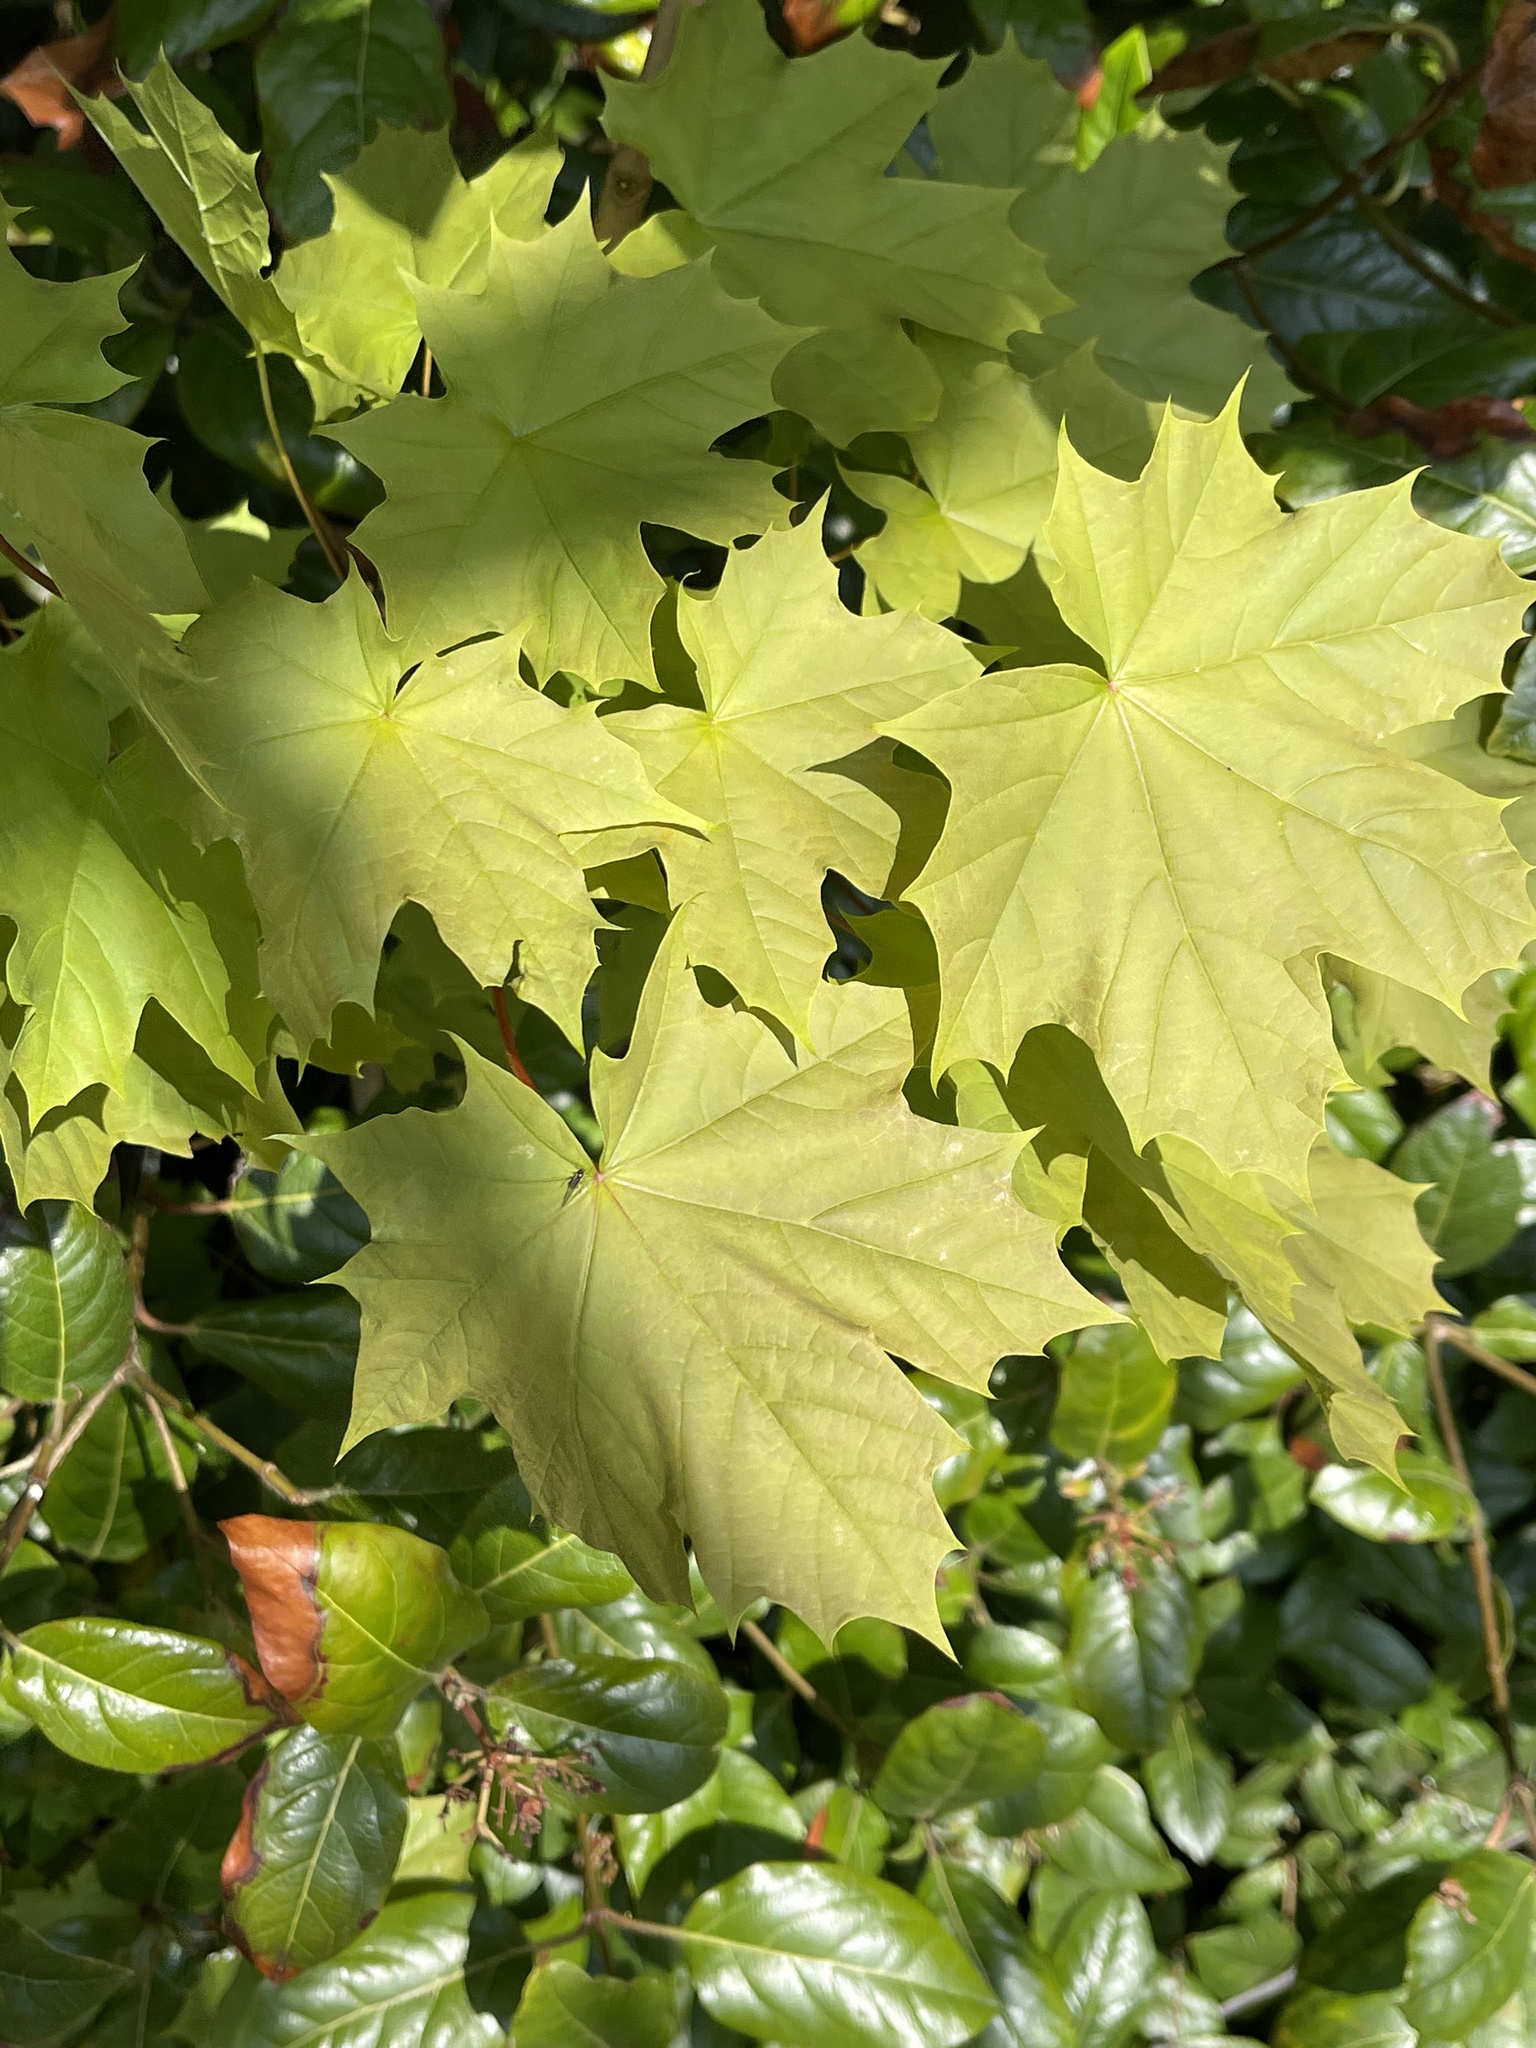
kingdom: Plantae
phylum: Tracheophyta
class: Magnoliopsida
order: Sapindales
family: Sapindaceae
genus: Acer
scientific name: Acer platanoides
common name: Norway maple
